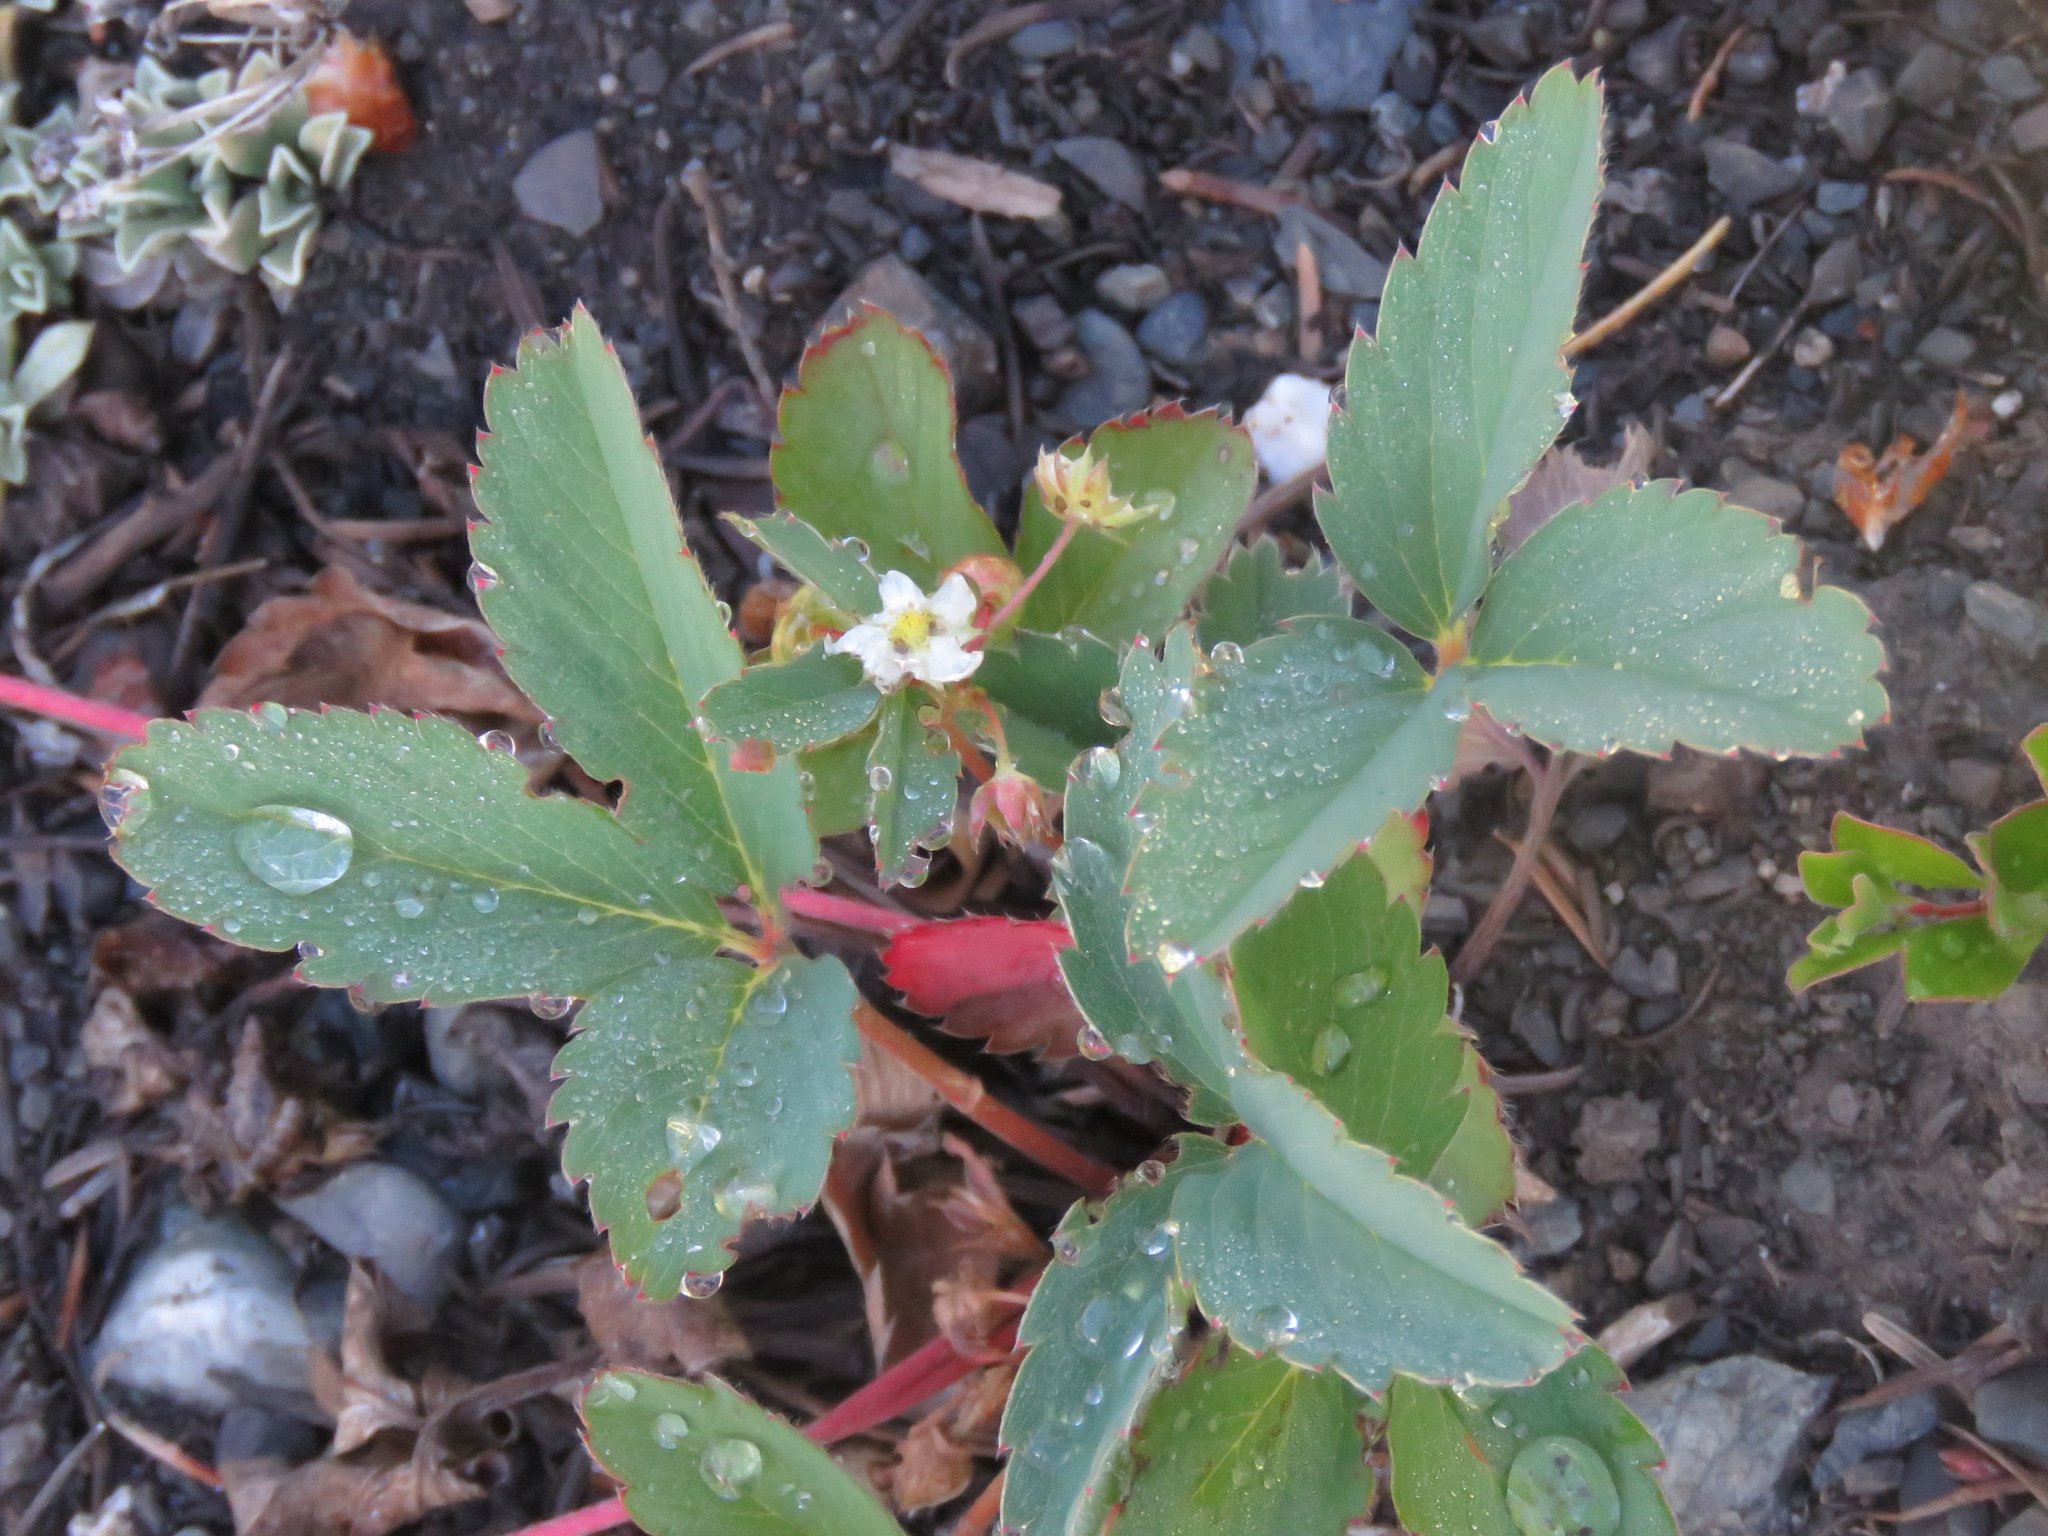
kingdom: Plantae
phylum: Tracheophyta
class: Magnoliopsida
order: Rosales
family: Rosaceae
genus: Fragaria
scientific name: Fragaria virginiana
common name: Thickleaved wild strawberry
